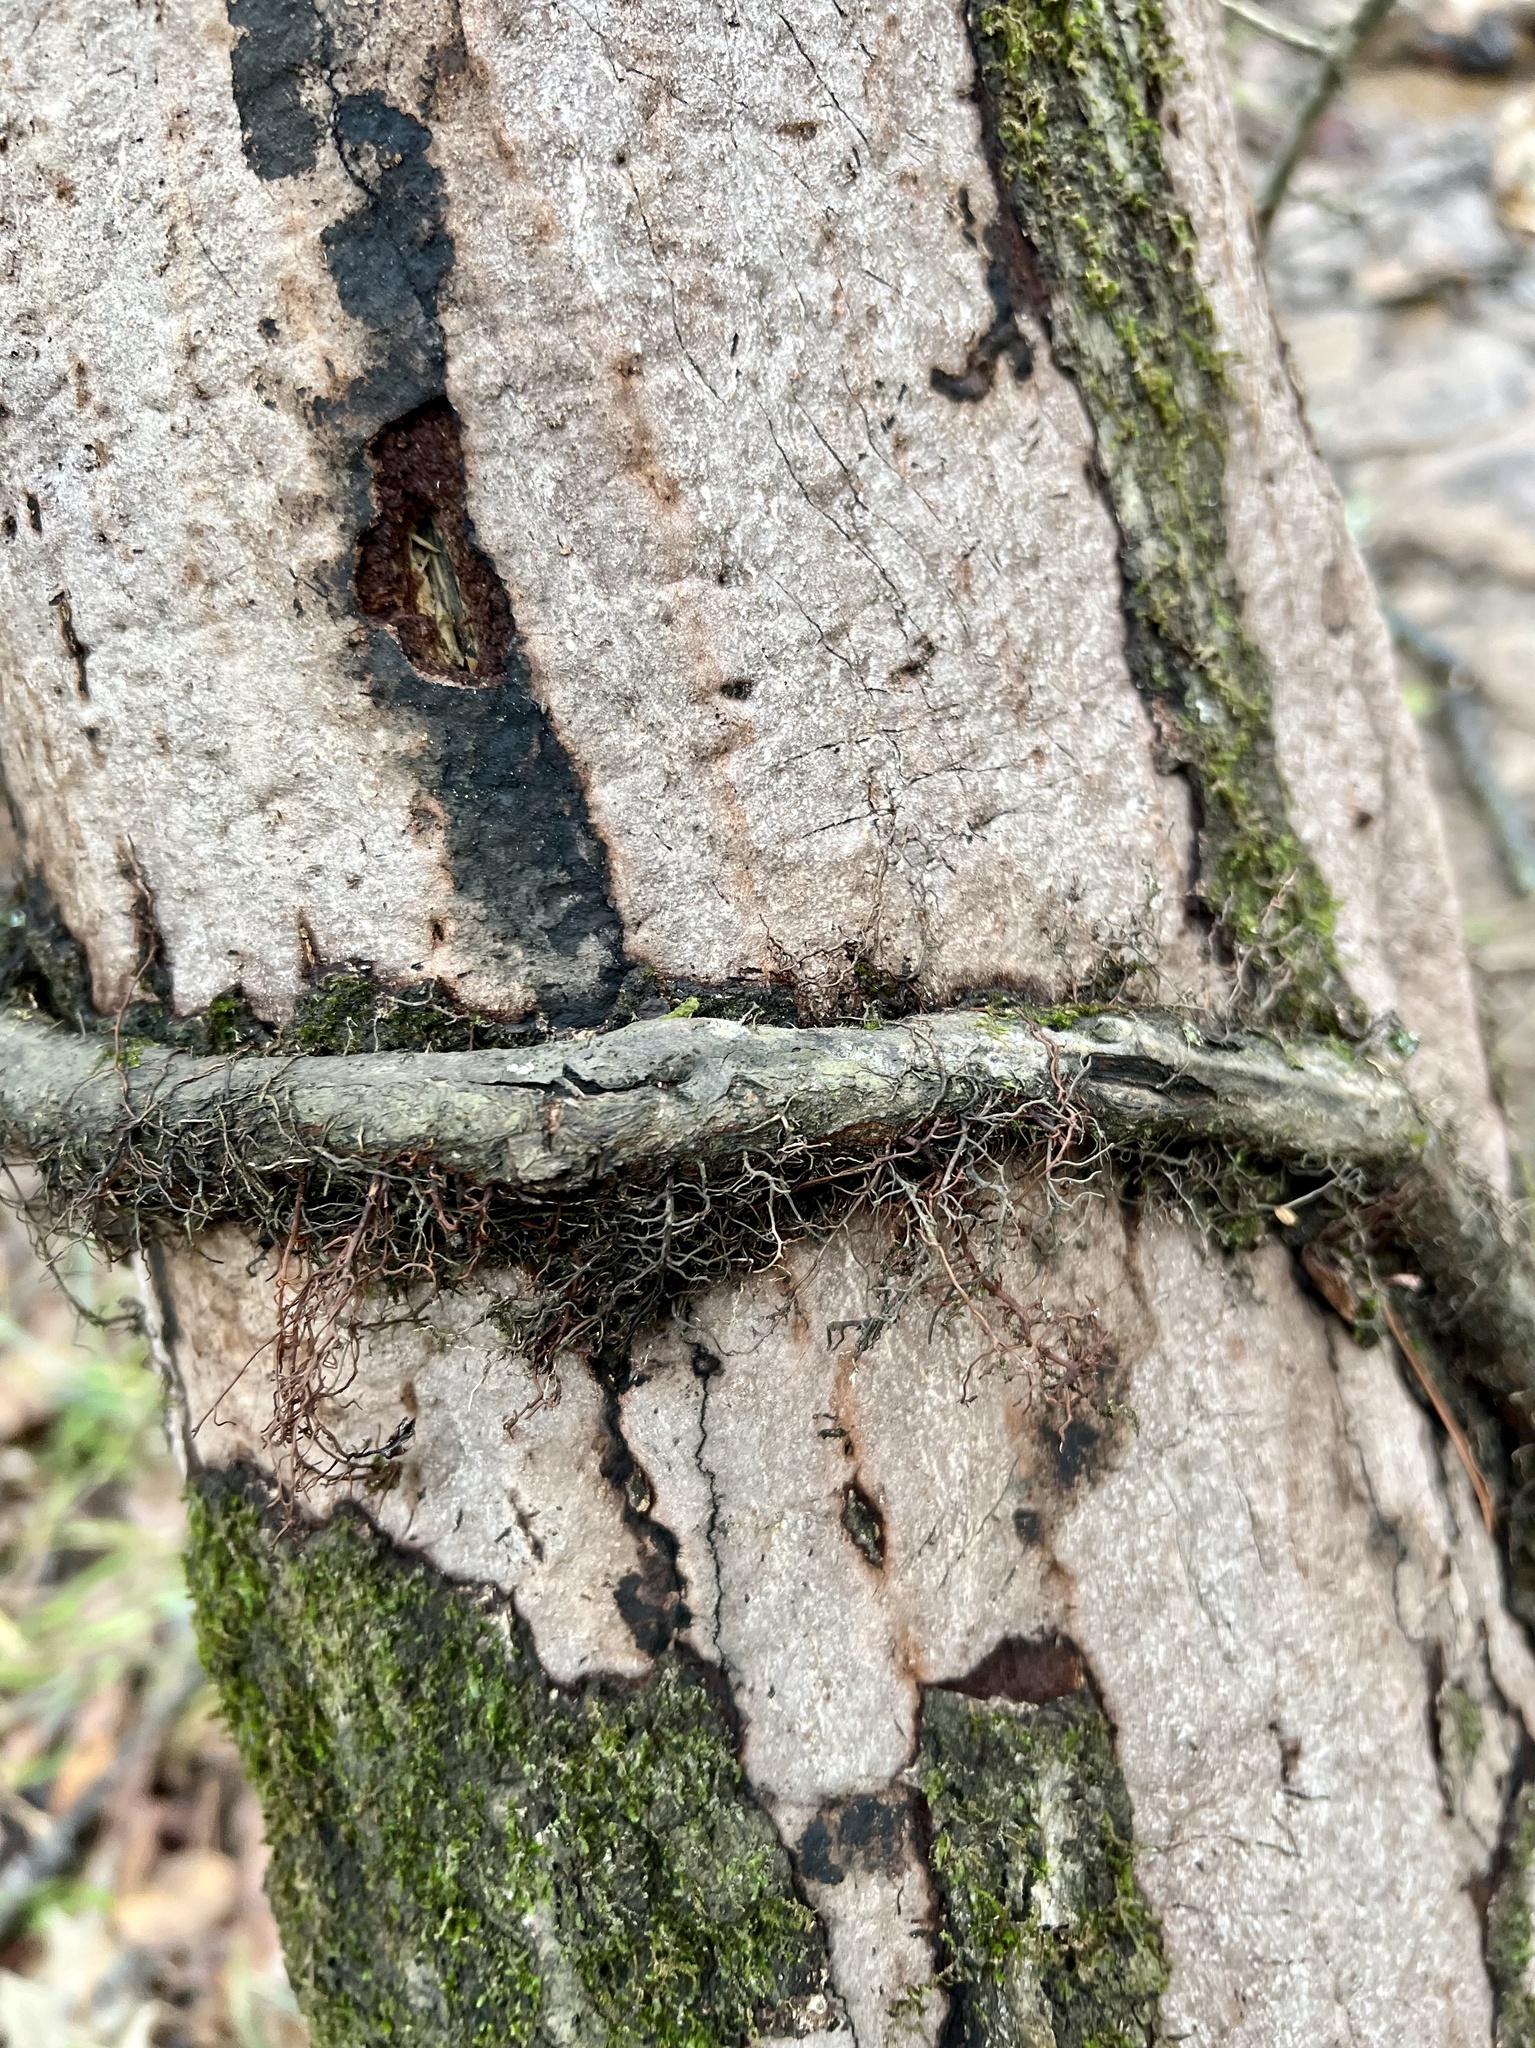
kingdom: Plantae
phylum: Tracheophyta
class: Magnoliopsida
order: Sapindales
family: Anacardiaceae
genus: Toxicodendron
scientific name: Toxicodendron radicans
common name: Poison ivy
